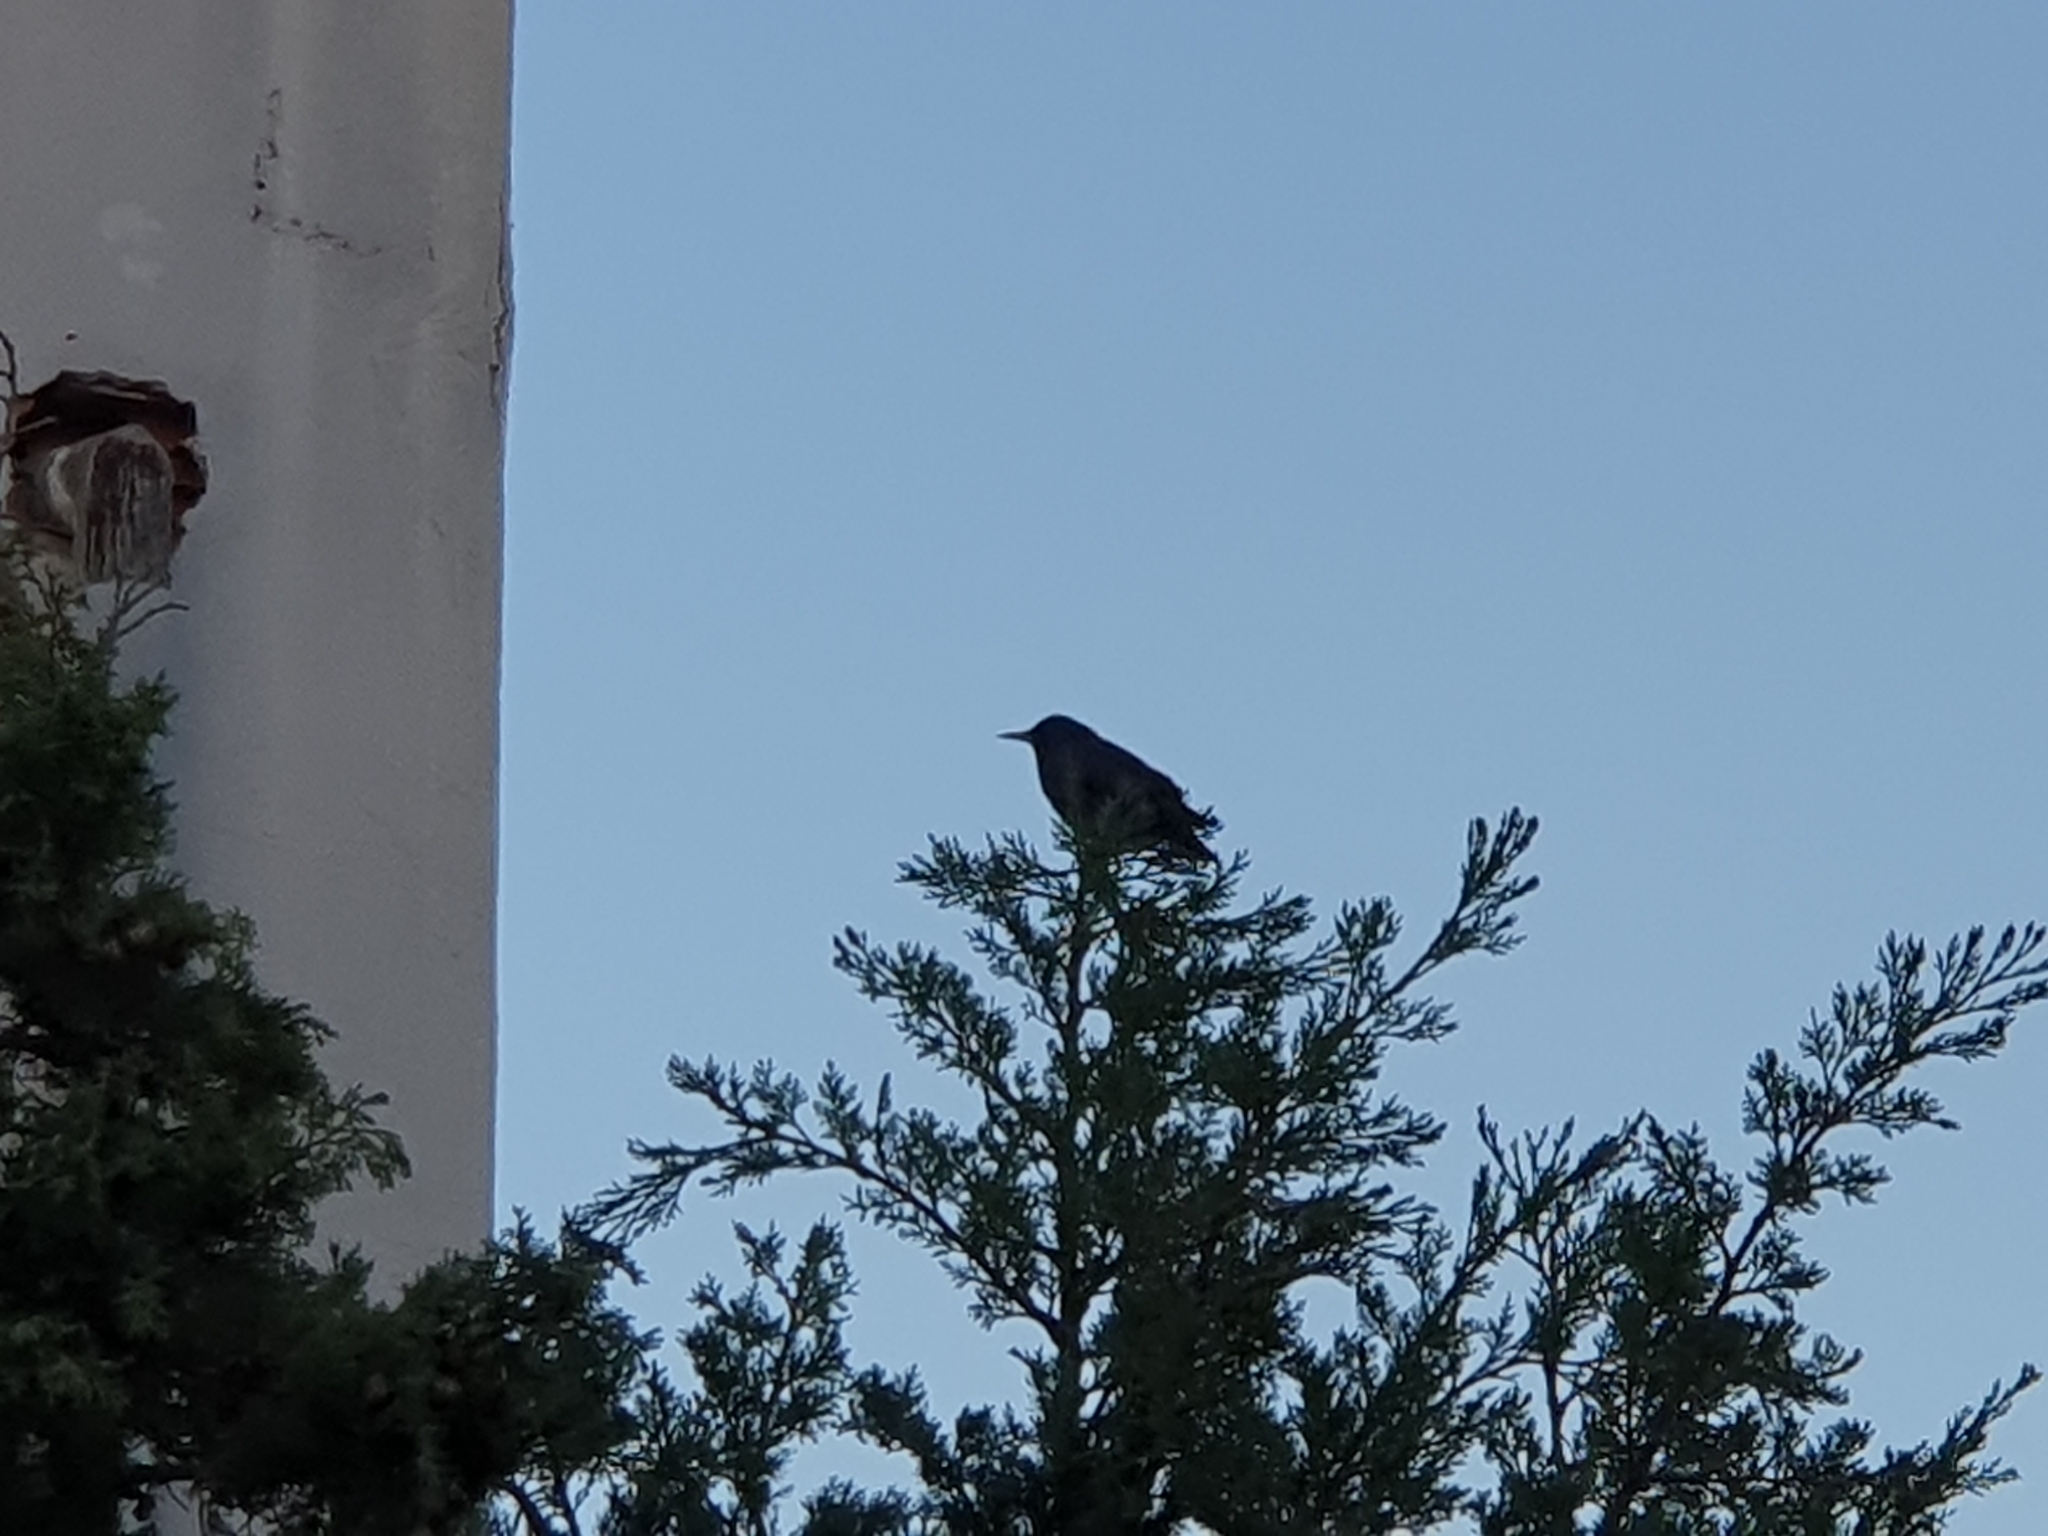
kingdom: Animalia
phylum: Chordata
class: Aves
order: Passeriformes
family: Sturnidae
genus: Sturnus
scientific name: Sturnus unicolor
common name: Spotless starling
